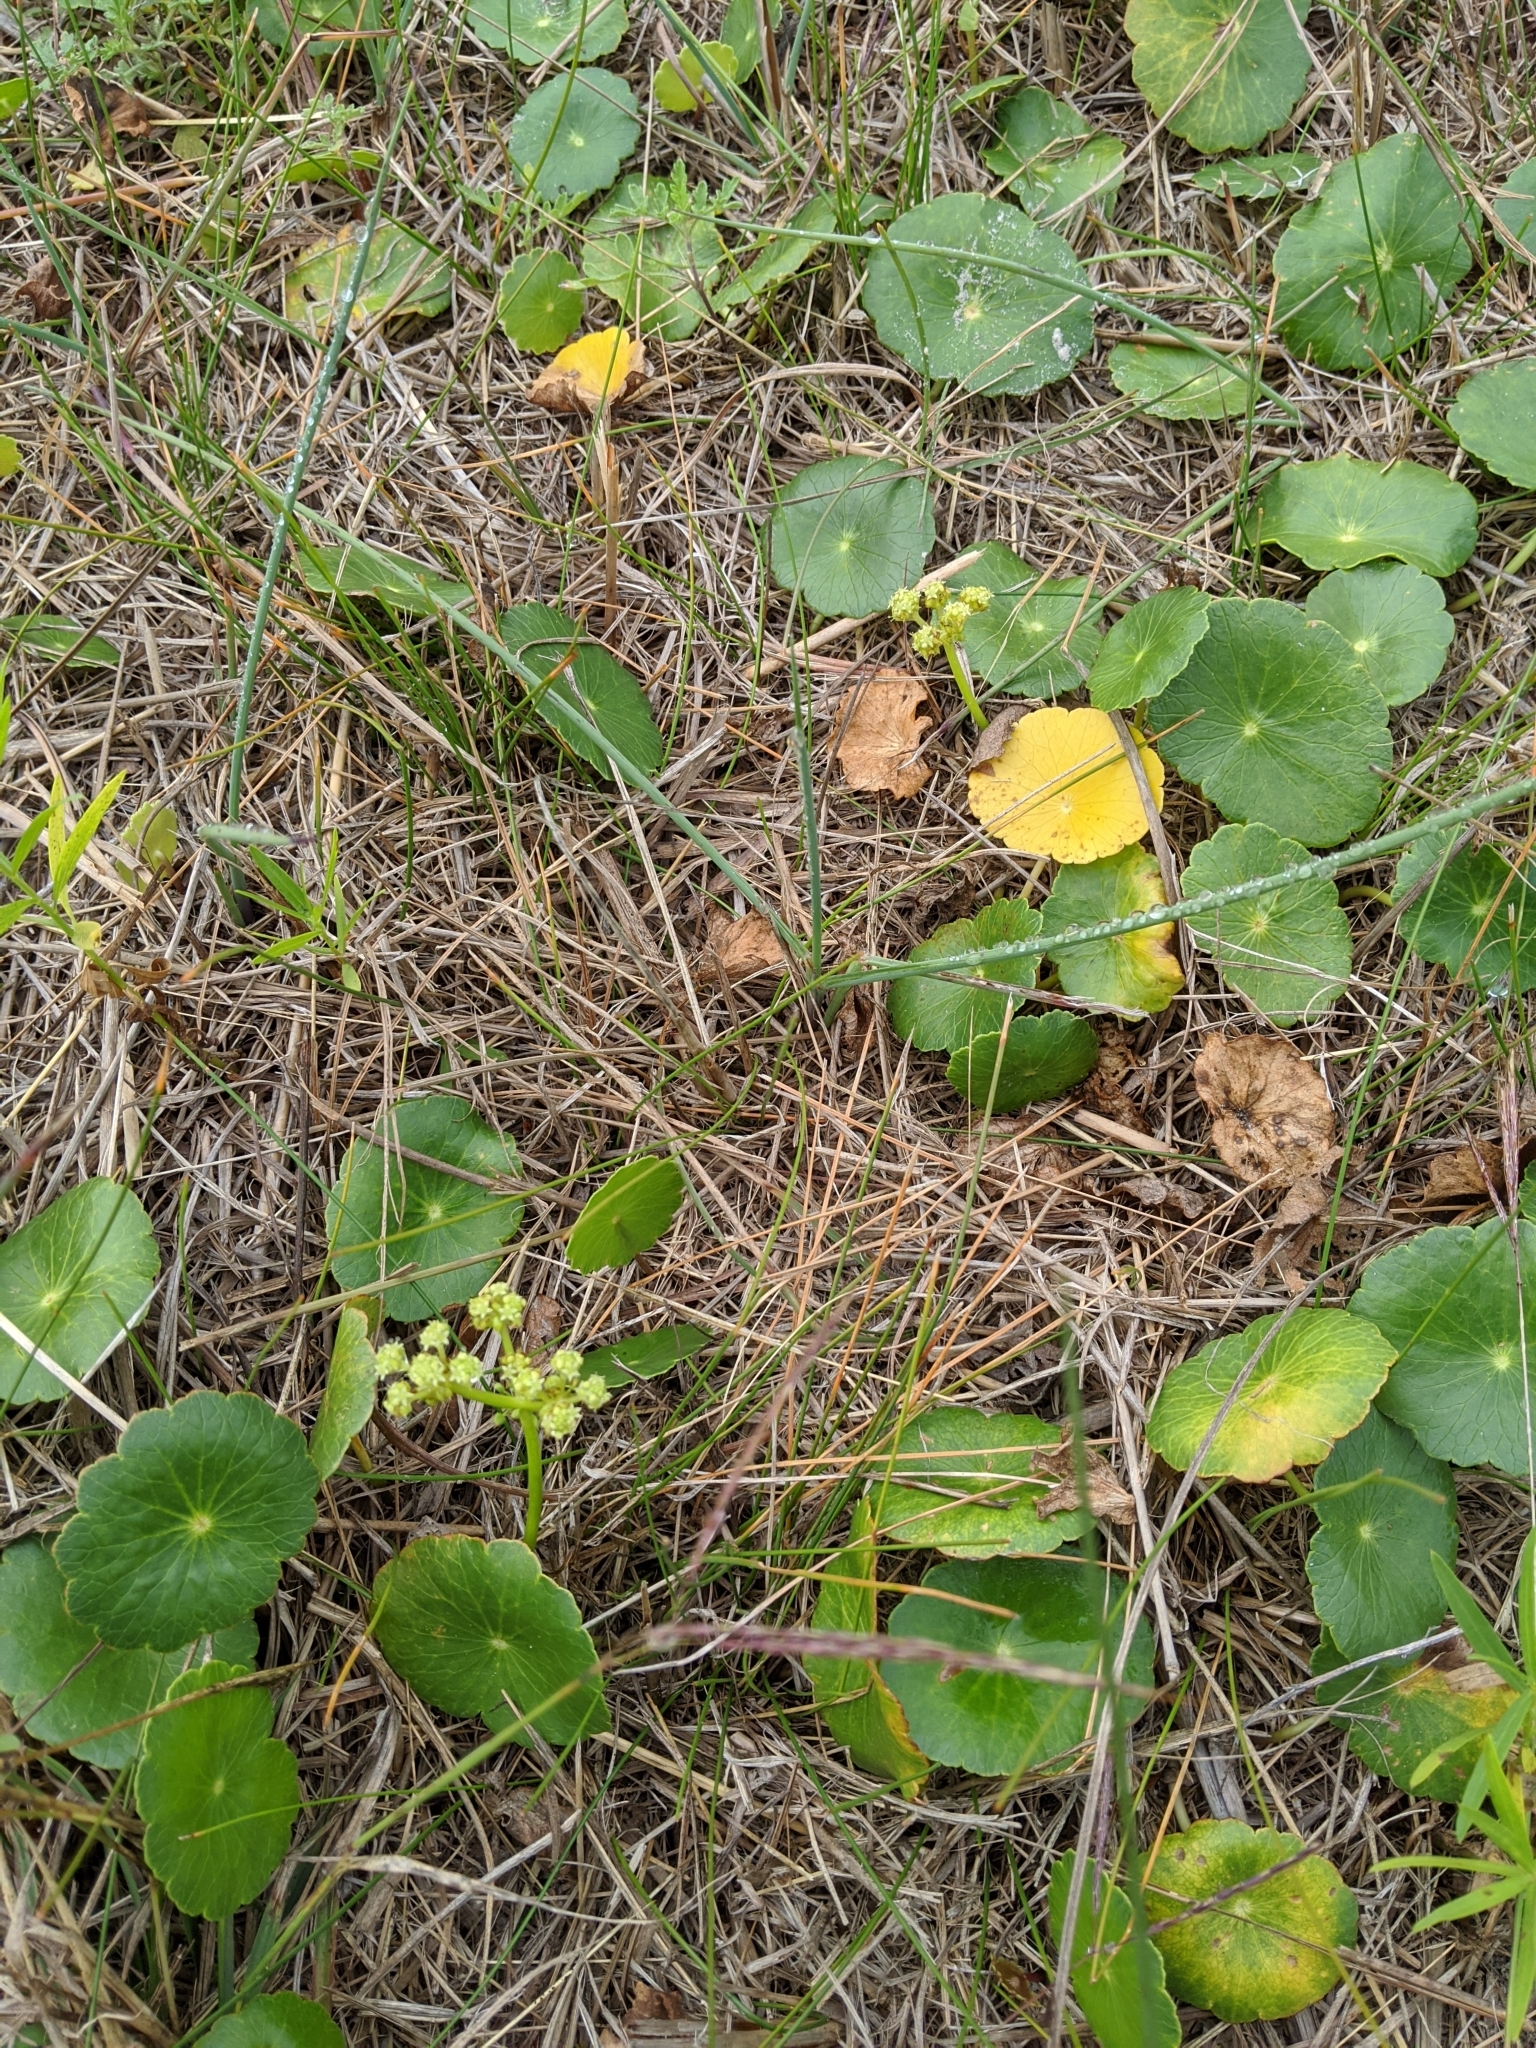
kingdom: Plantae
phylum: Tracheophyta
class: Magnoliopsida
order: Apiales
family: Araliaceae
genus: Hydrocotyle
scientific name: Hydrocotyle bonariensis
